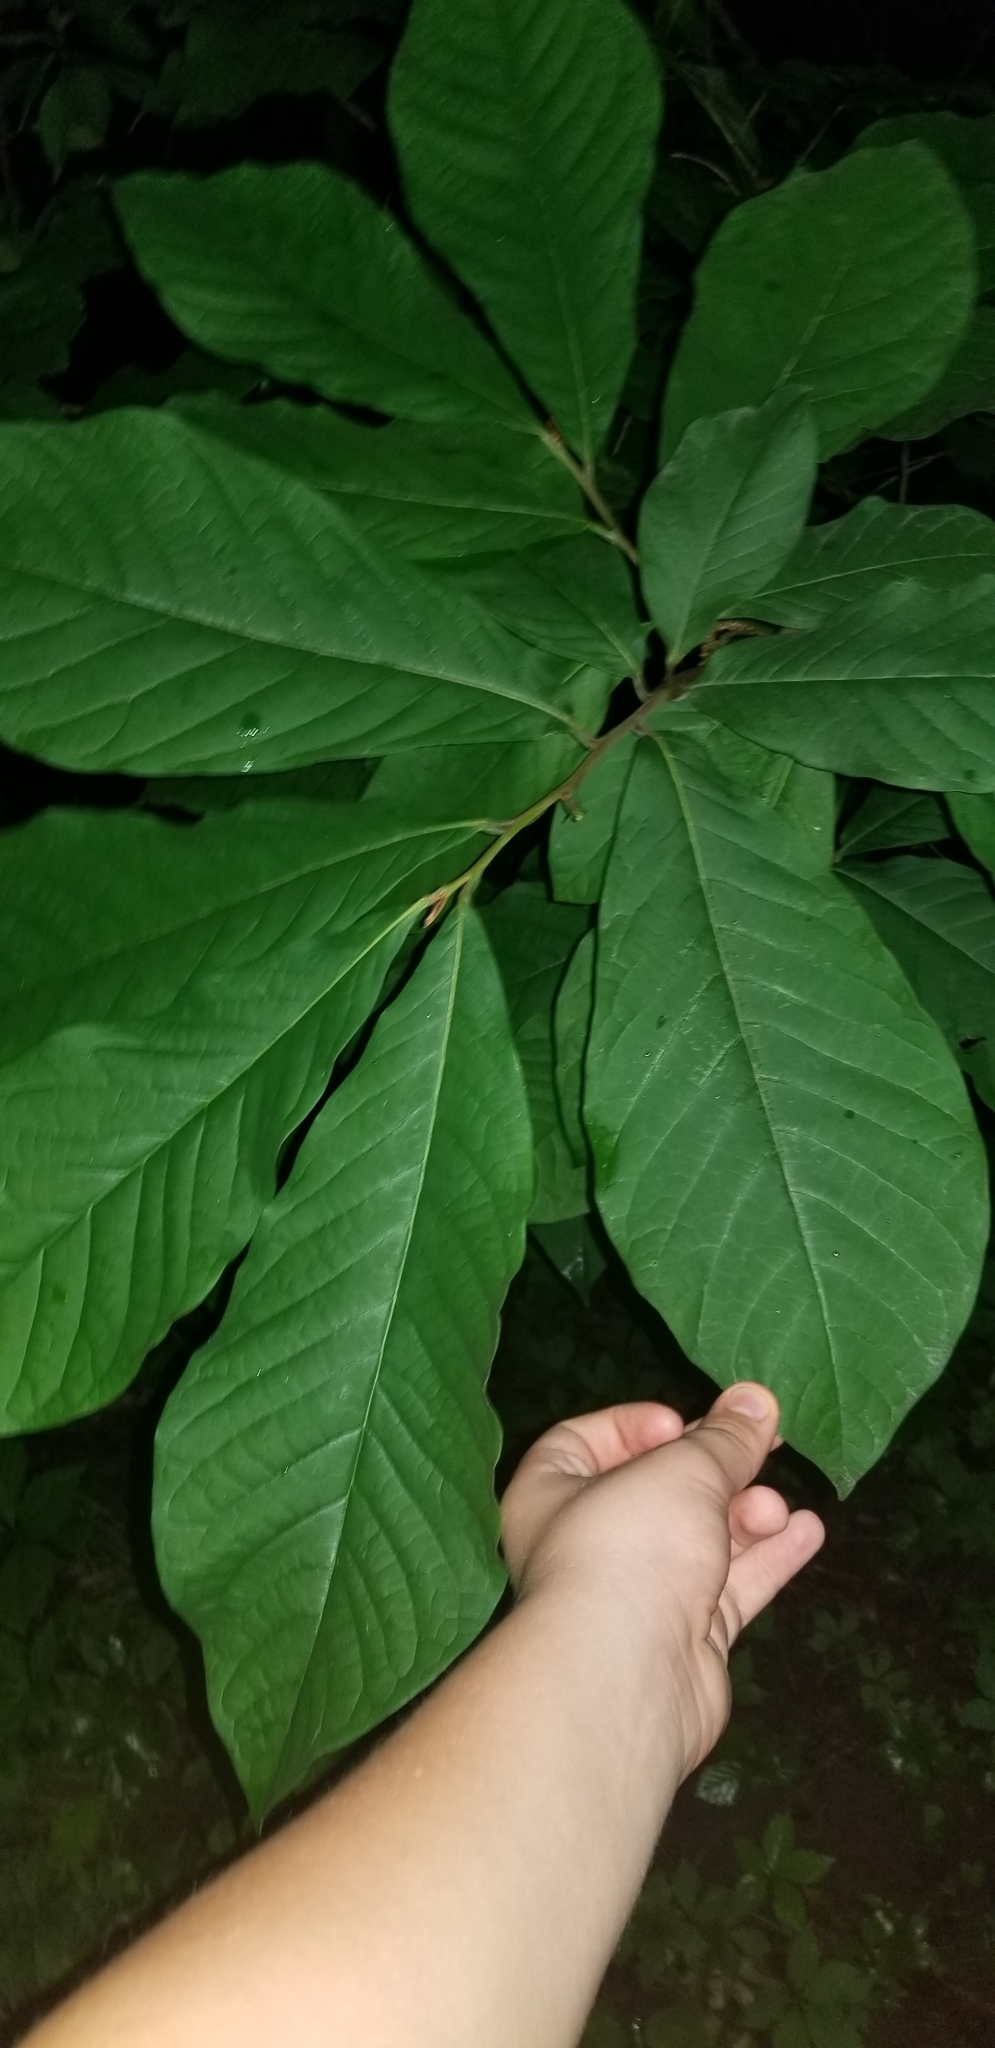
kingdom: Plantae
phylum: Tracheophyta
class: Magnoliopsida
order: Magnoliales
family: Annonaceae
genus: Asimina
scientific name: Asimina triloba
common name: Dog-banana
